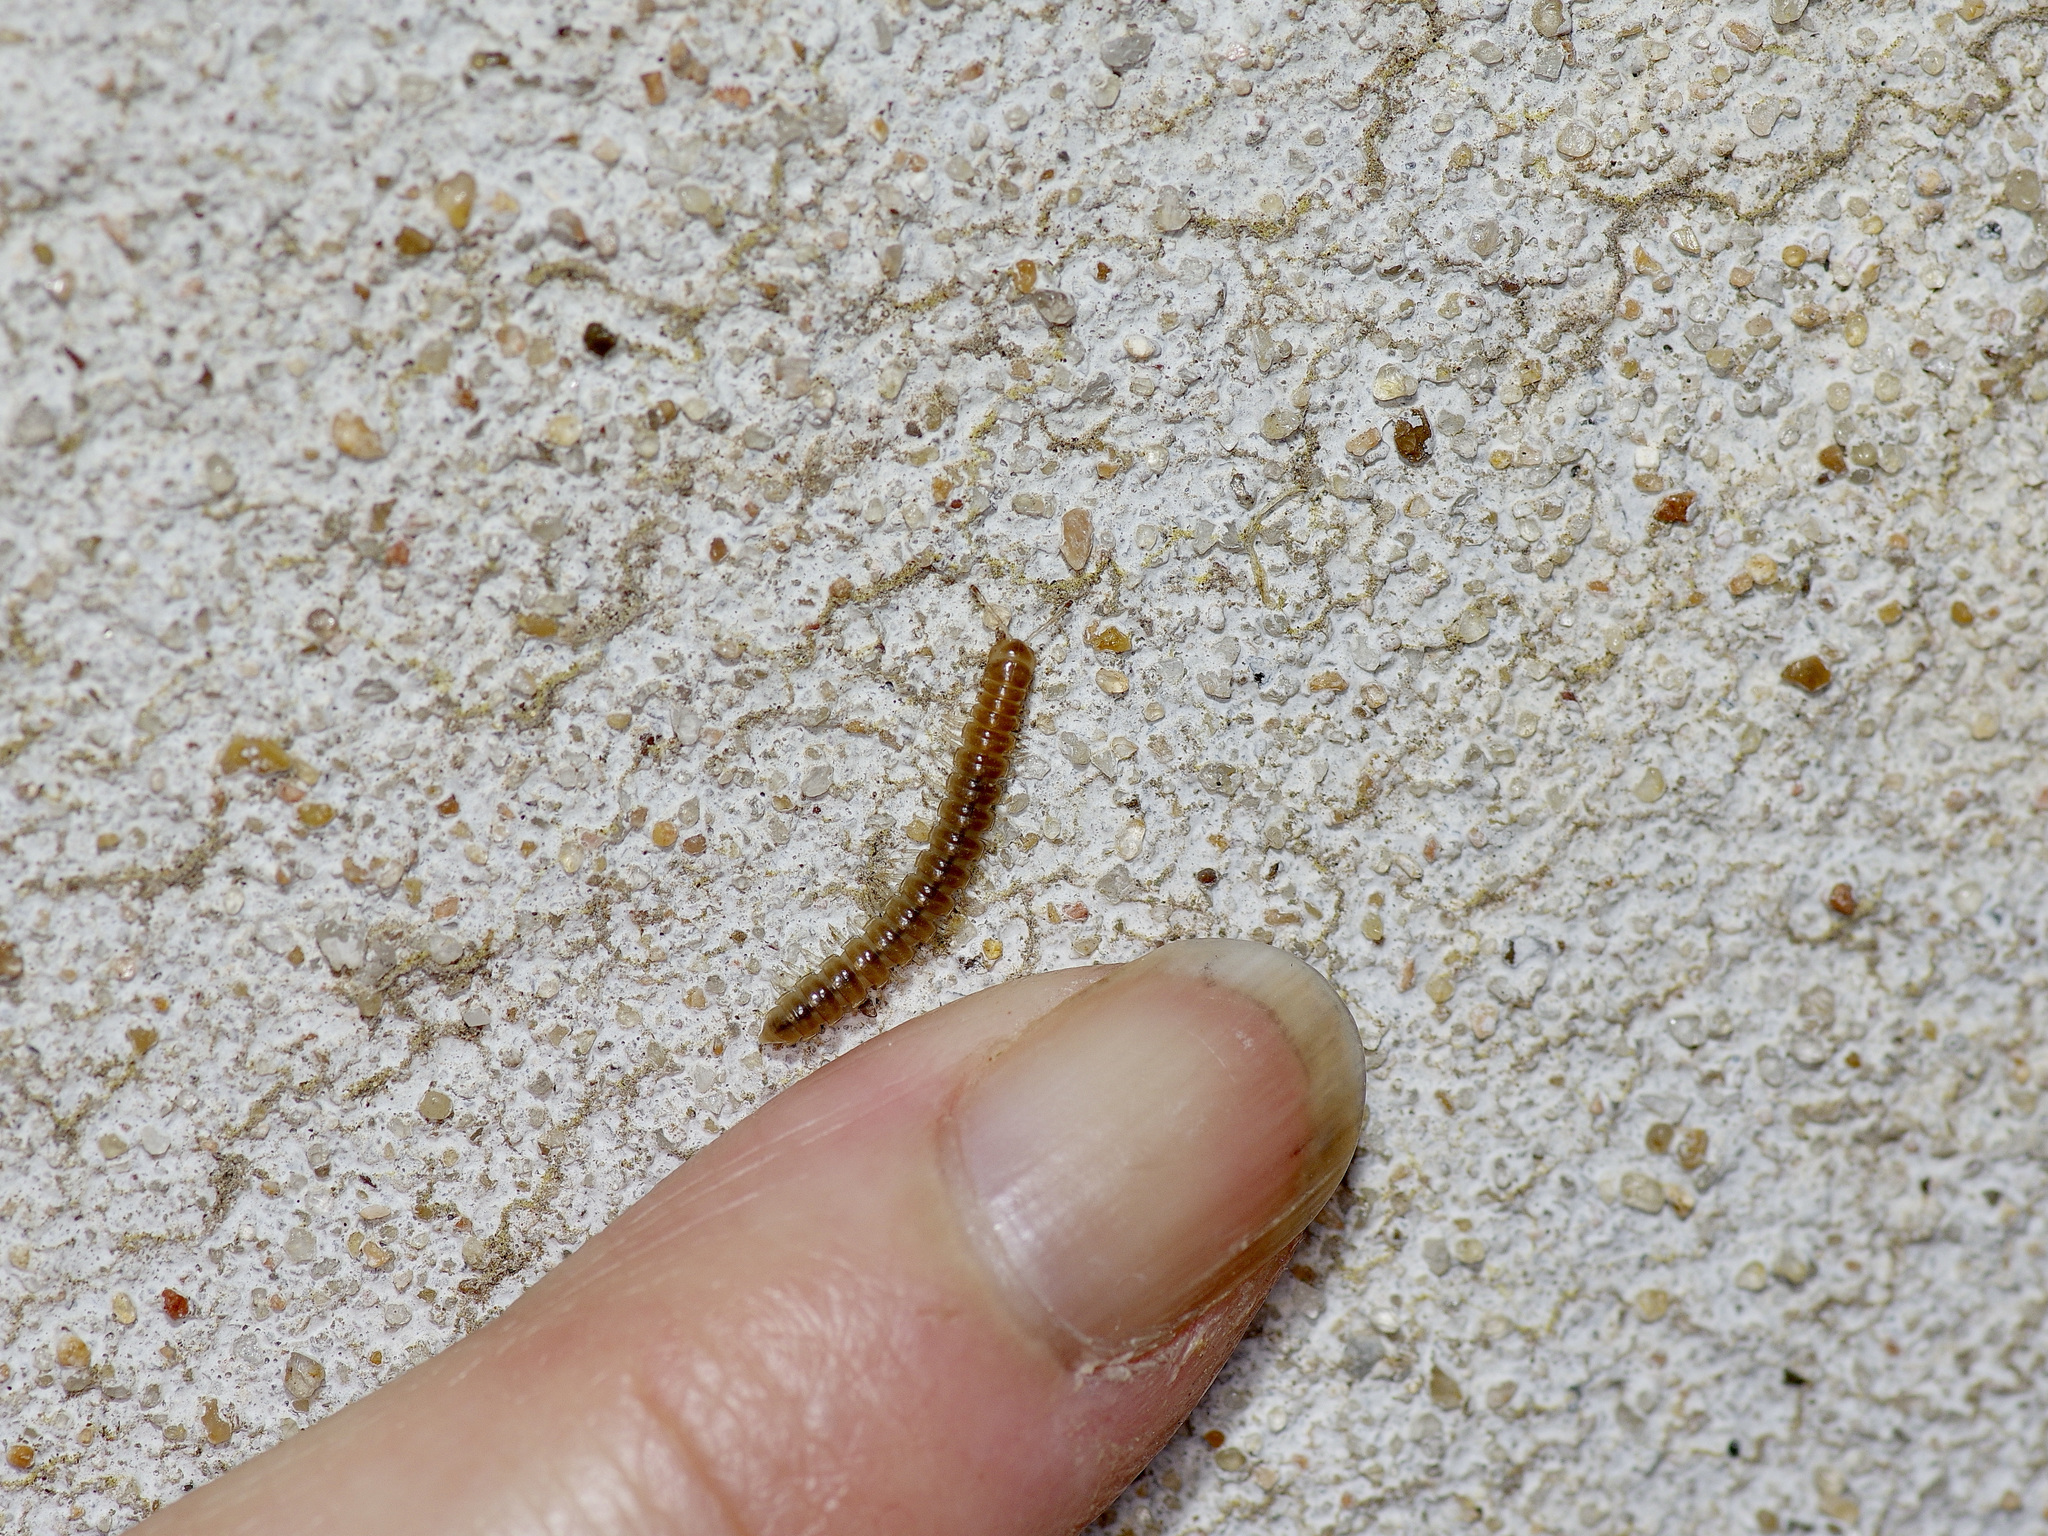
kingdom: Animalia
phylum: Arthropoda
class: Diplopoda
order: Polydesmida
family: Paradoxosomatidae
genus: Oxidus
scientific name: Oxidus gracilis
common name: Greenhouse millipede
